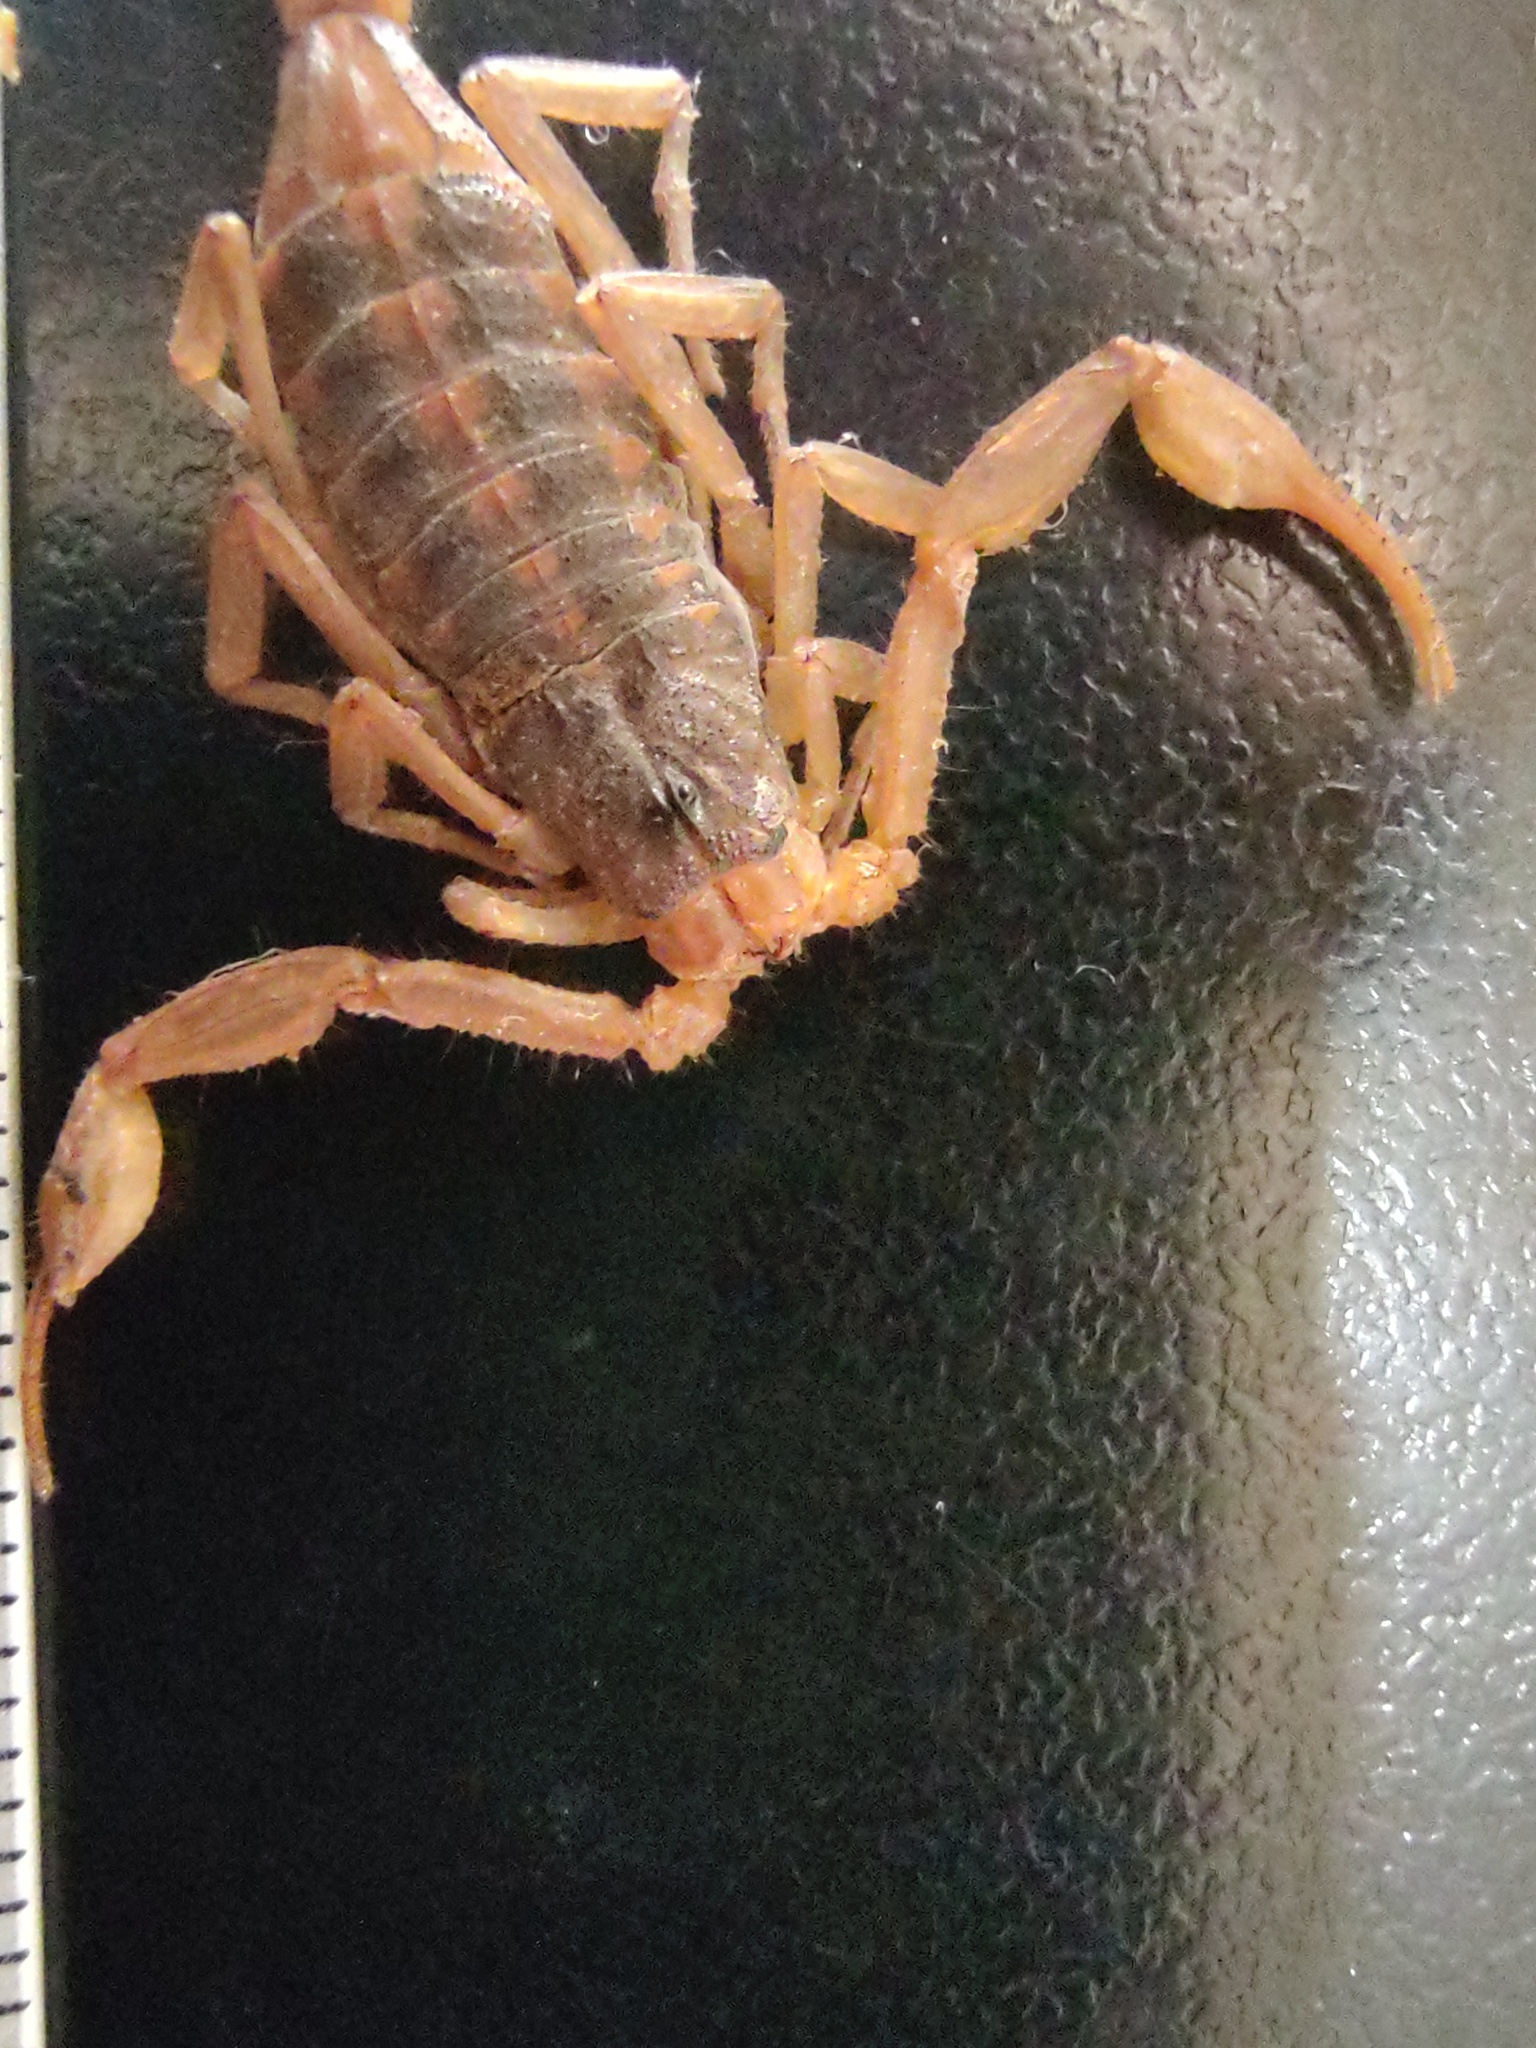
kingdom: Animalia
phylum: Arthropoda
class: Arachnida
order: Scorpiones
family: Buthidae
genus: Centruroides
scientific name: Centruroides ornatus
